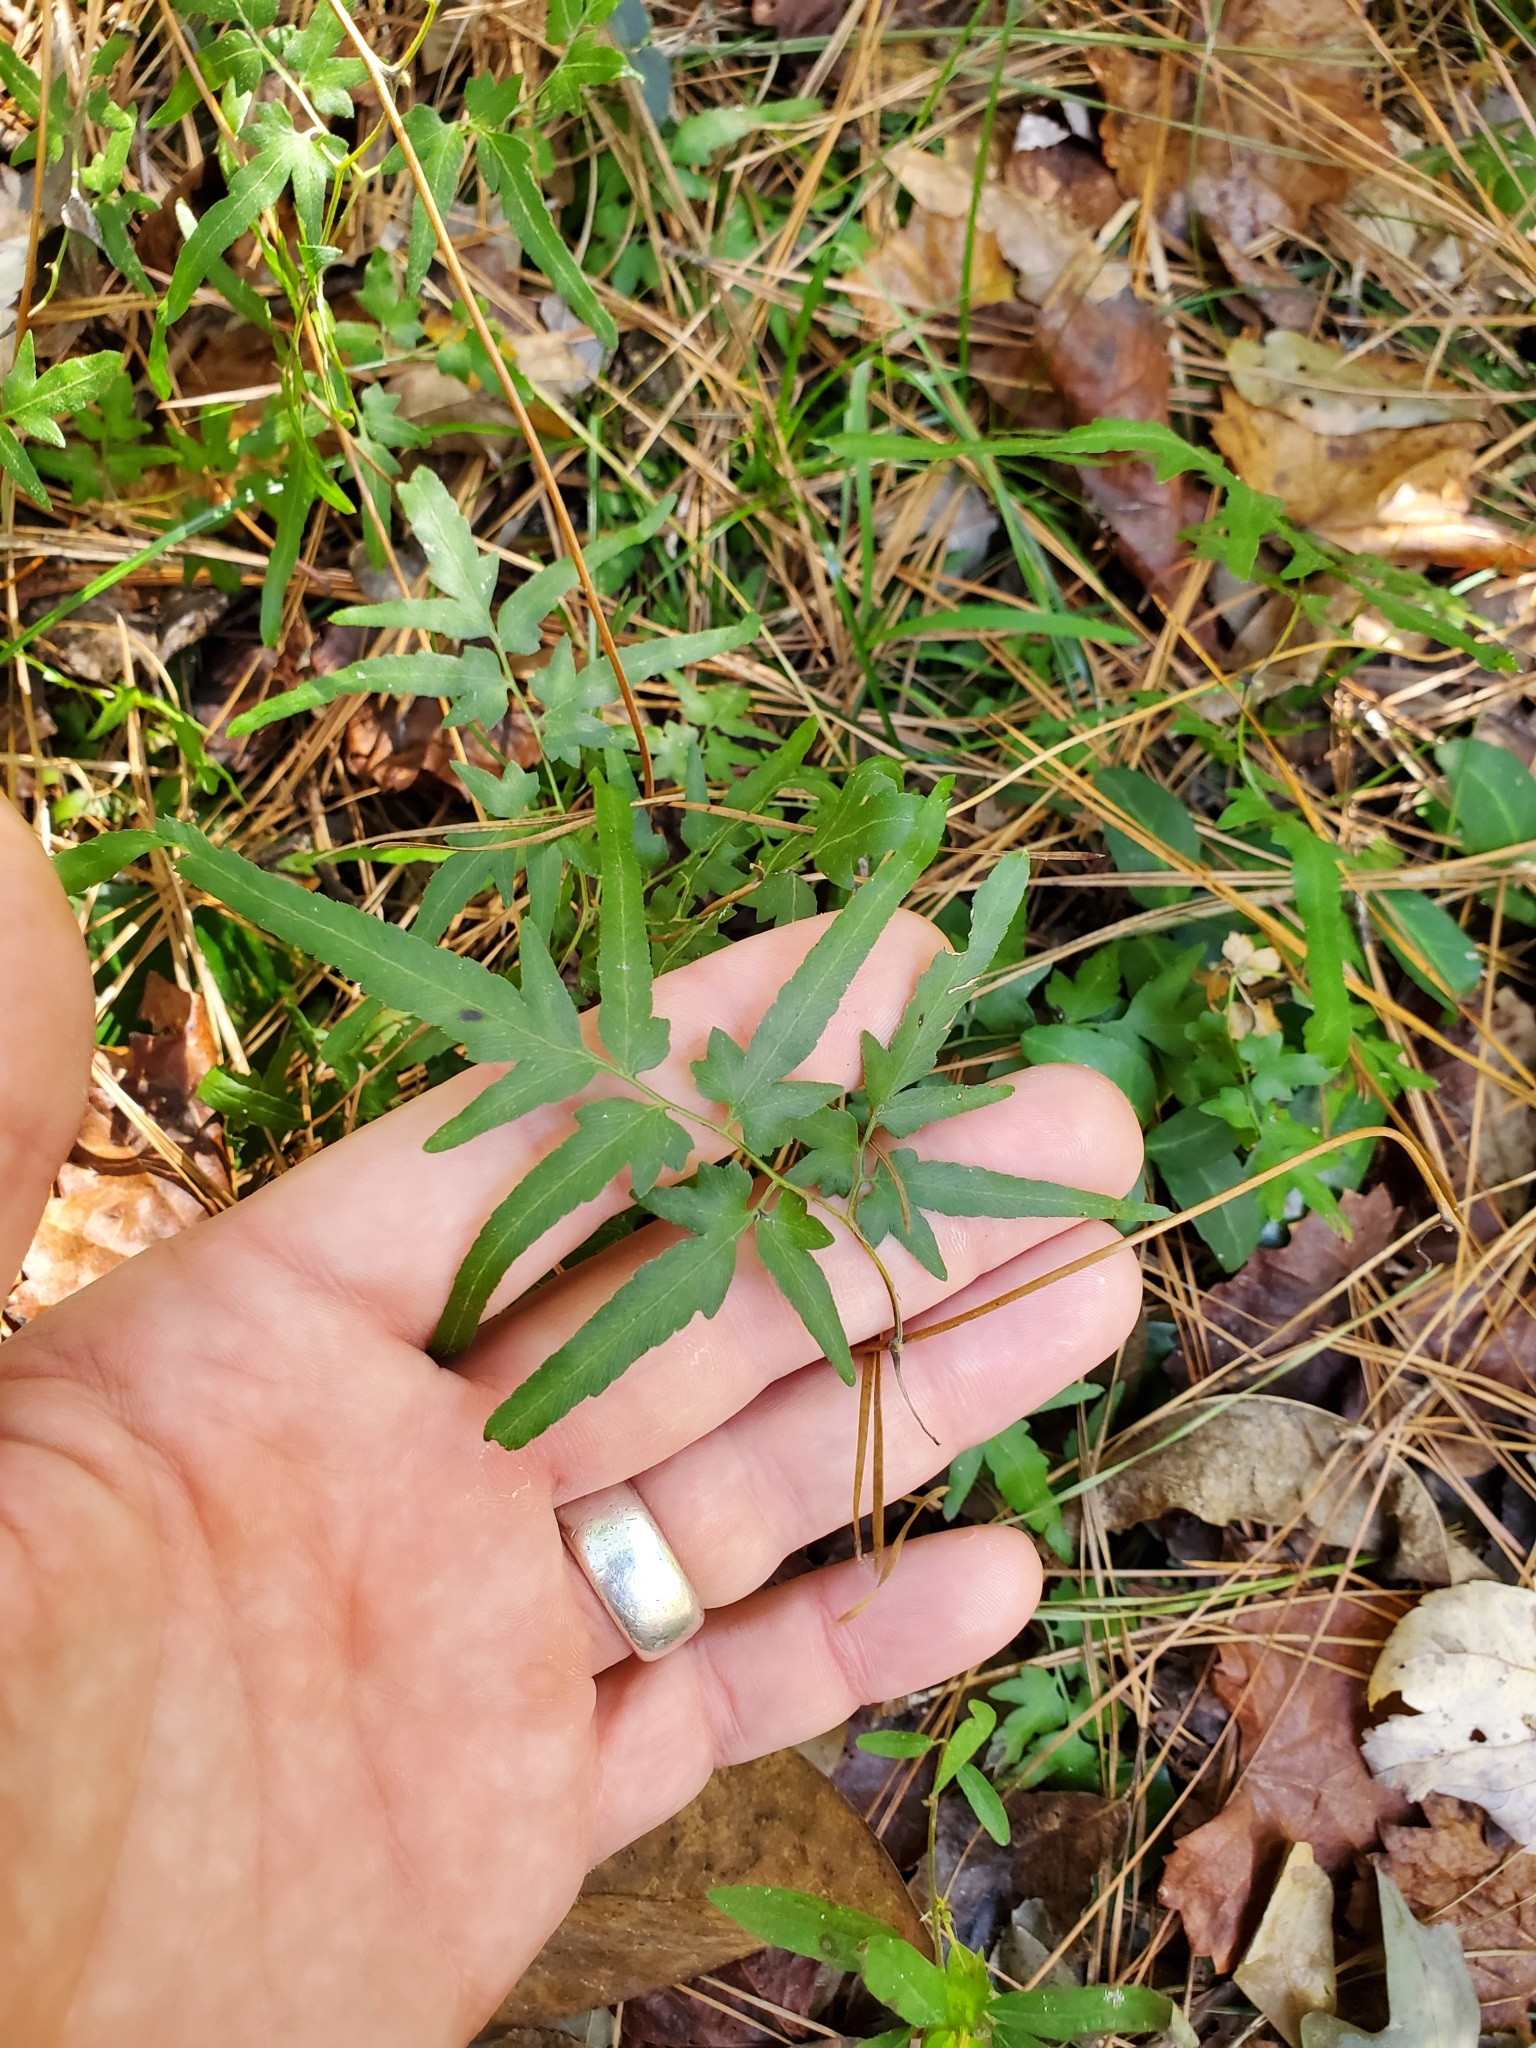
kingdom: Plantae
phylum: Tracheophyta
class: Polypodiopsida
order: Schizaeales
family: Lygodiaceae
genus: Lygodium
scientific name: Lygodium japonicum
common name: Japanese climbing fern
